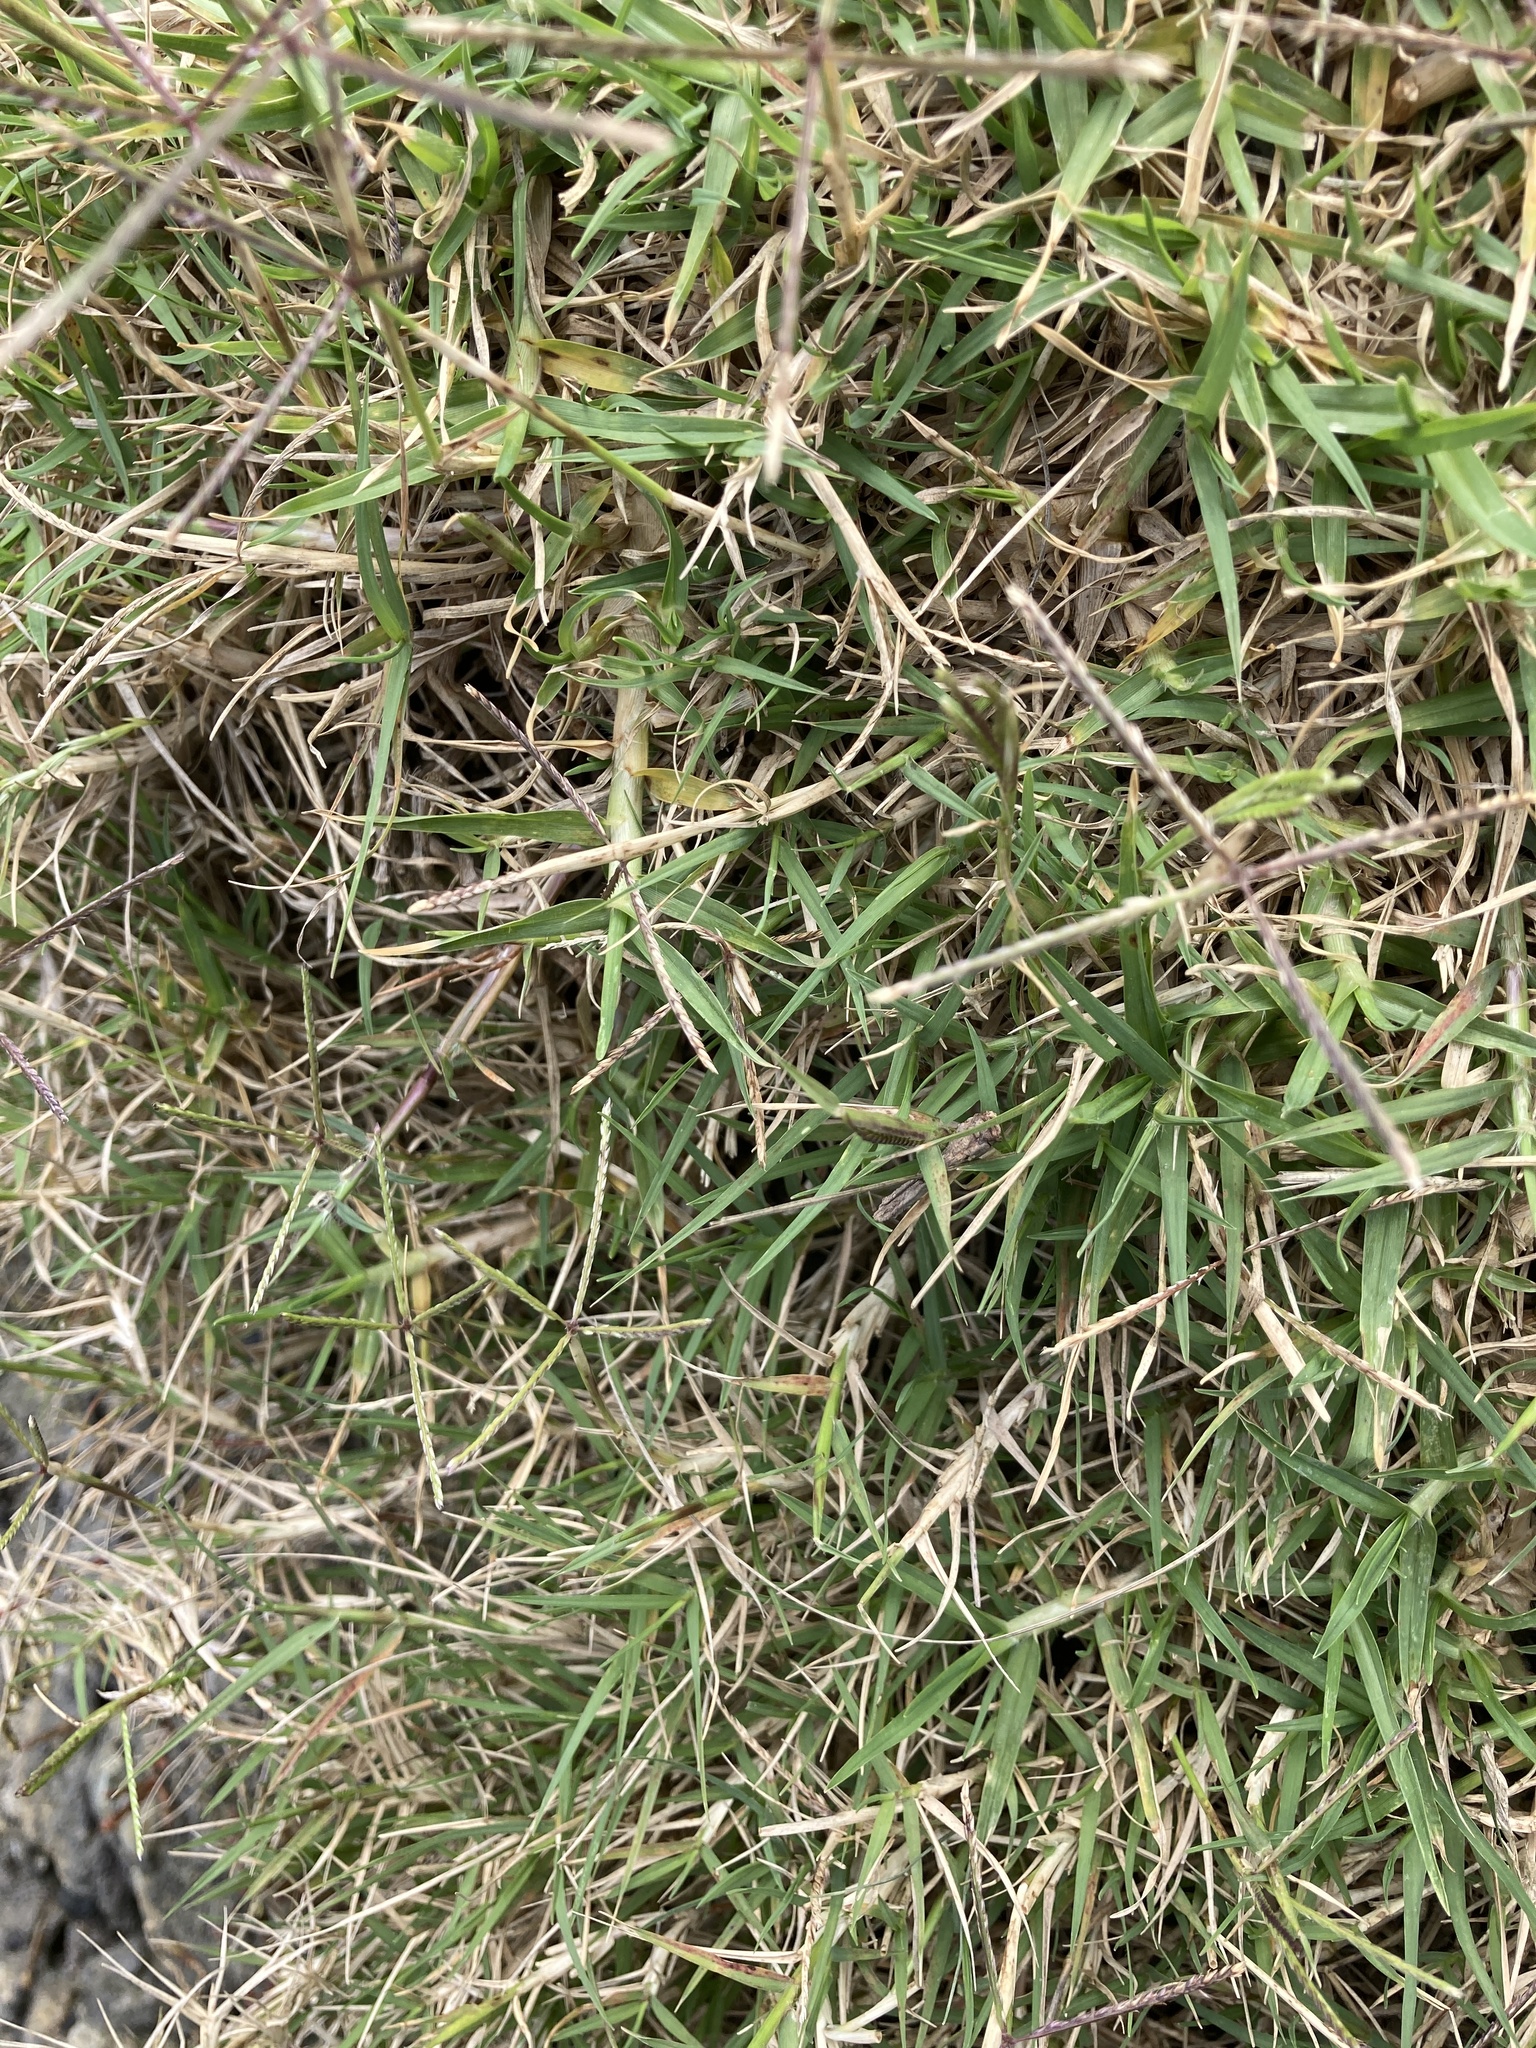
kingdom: Plantae
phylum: Tracheophyta
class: Liliopsida
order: Poales
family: Poaceae
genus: Cynodon
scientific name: Cynodon dactylon
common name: Bermuda grass
